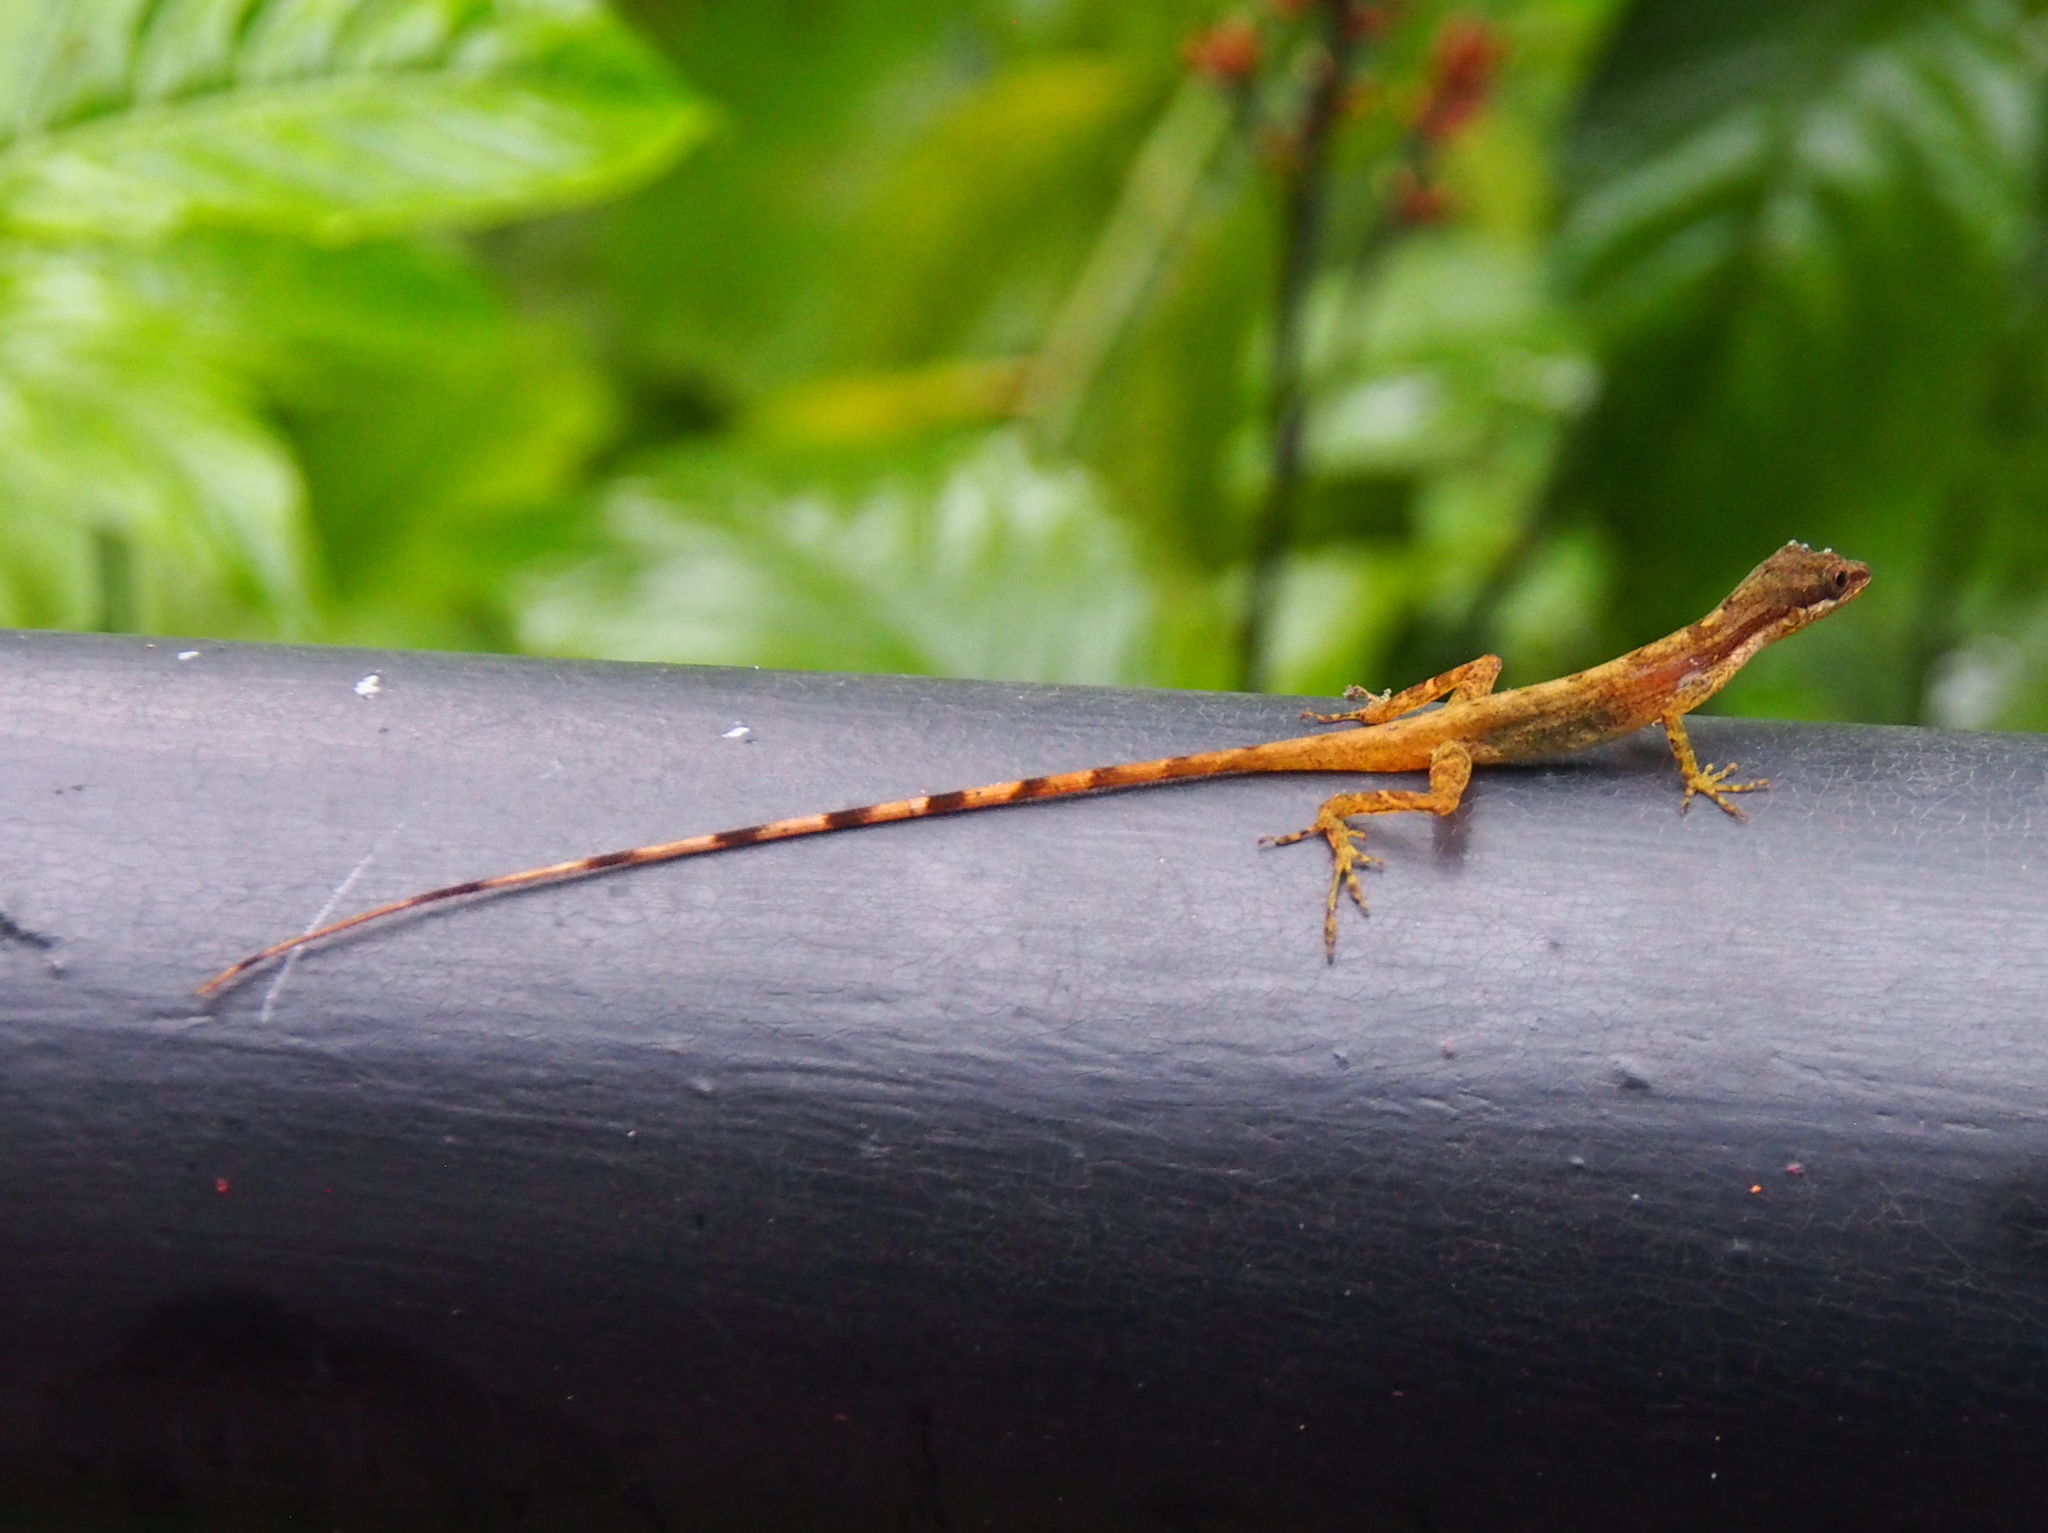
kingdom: Animalia
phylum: Chordata
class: Squamata
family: Dactyloidae
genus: Anolis
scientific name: Anolis limifrons
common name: Border anole
